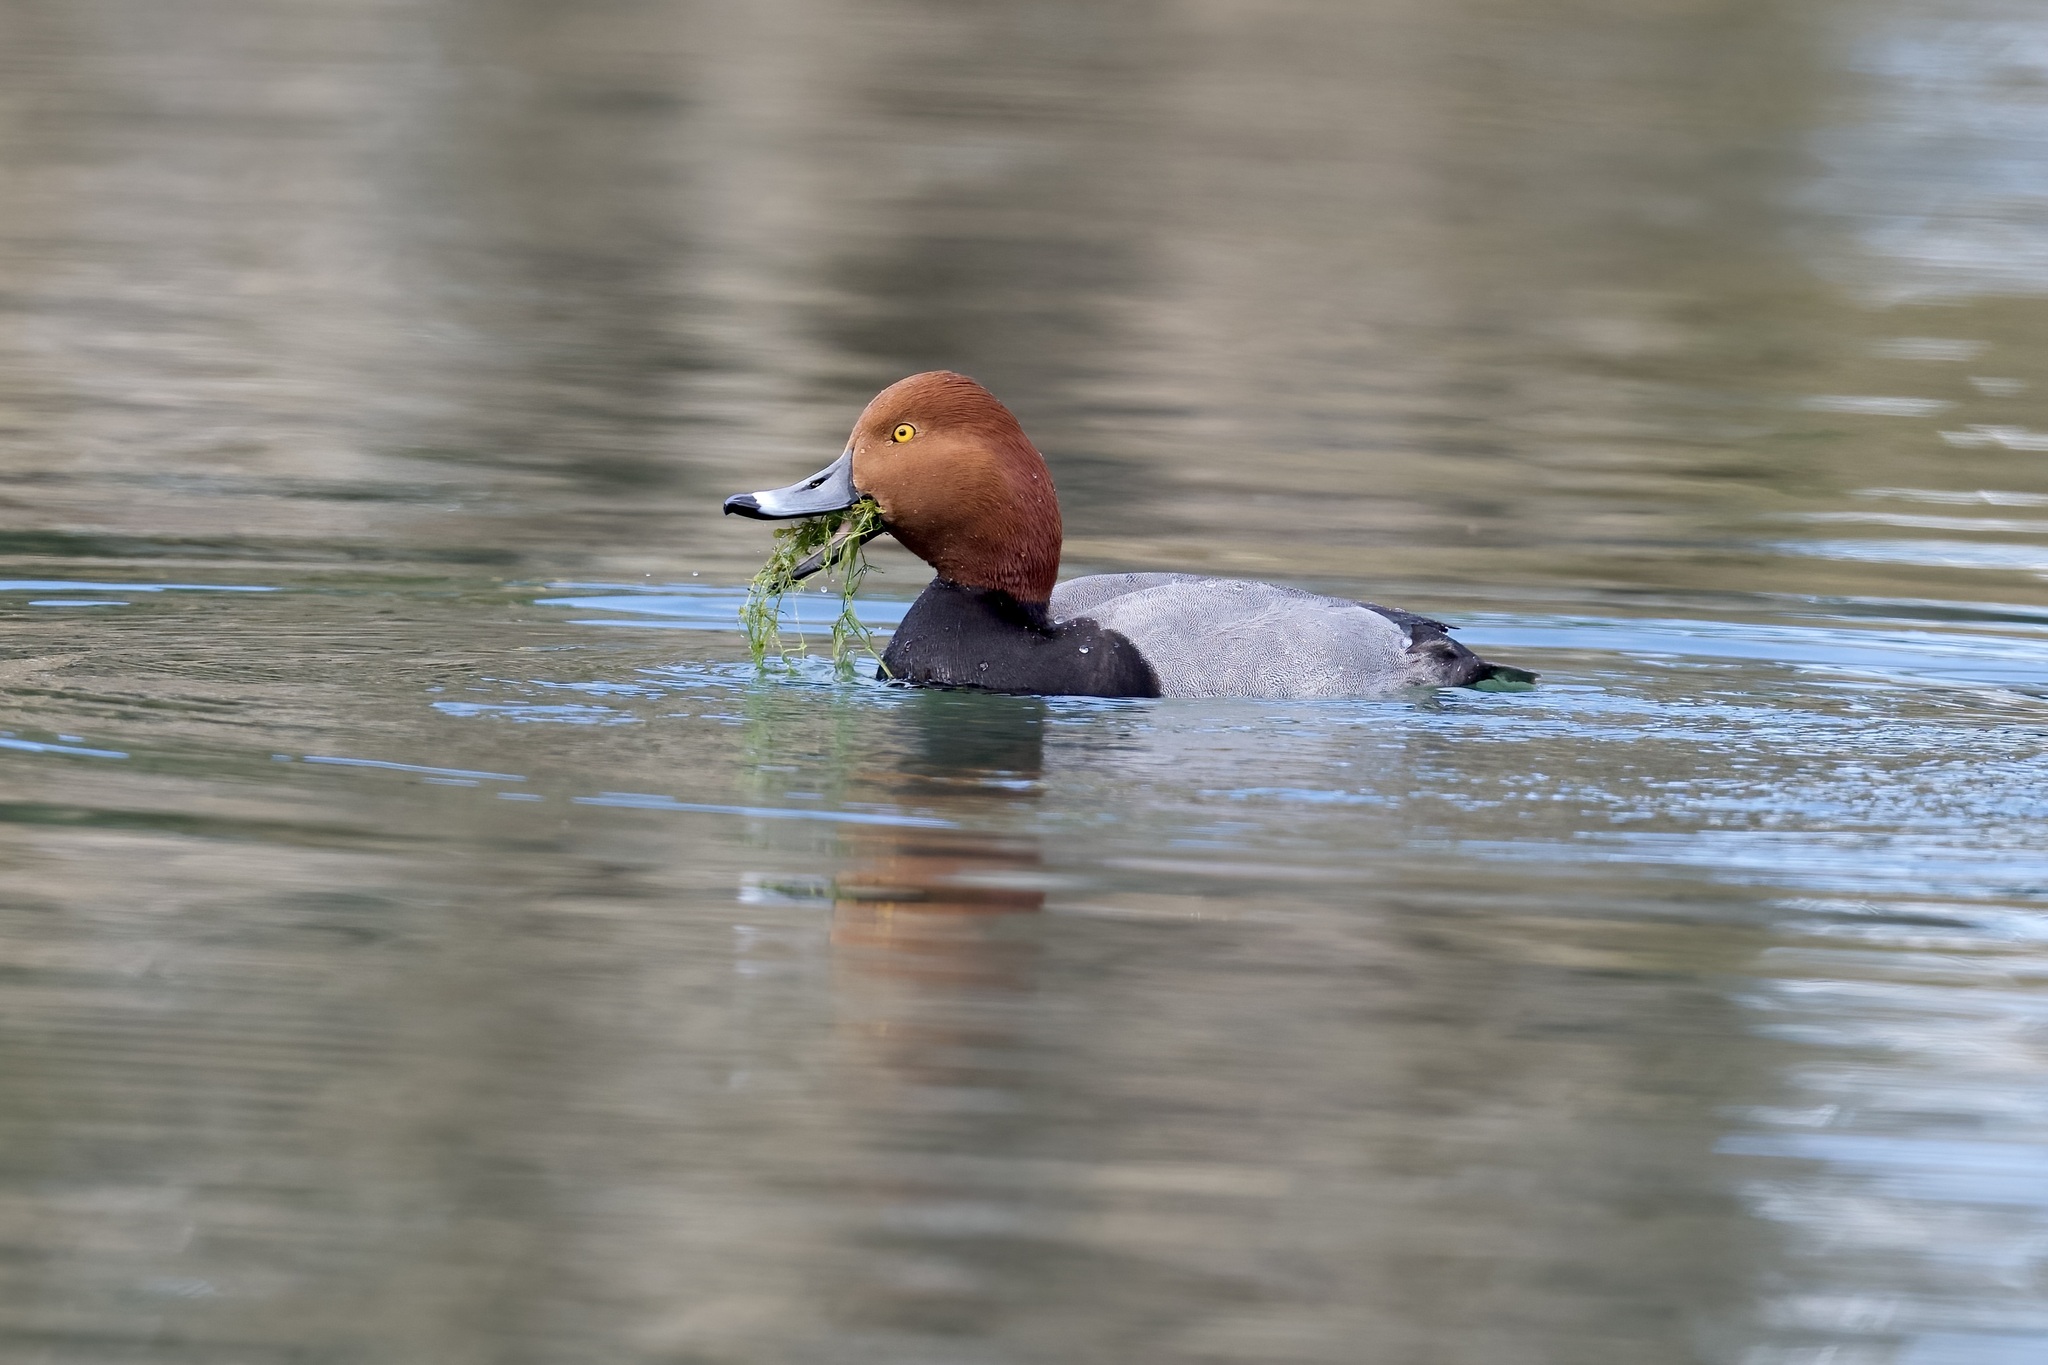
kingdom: Animalia
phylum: Chordata
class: Aves
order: Anseriformes
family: Anatidae
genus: Aythya
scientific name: Aythya americana
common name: Redhead
